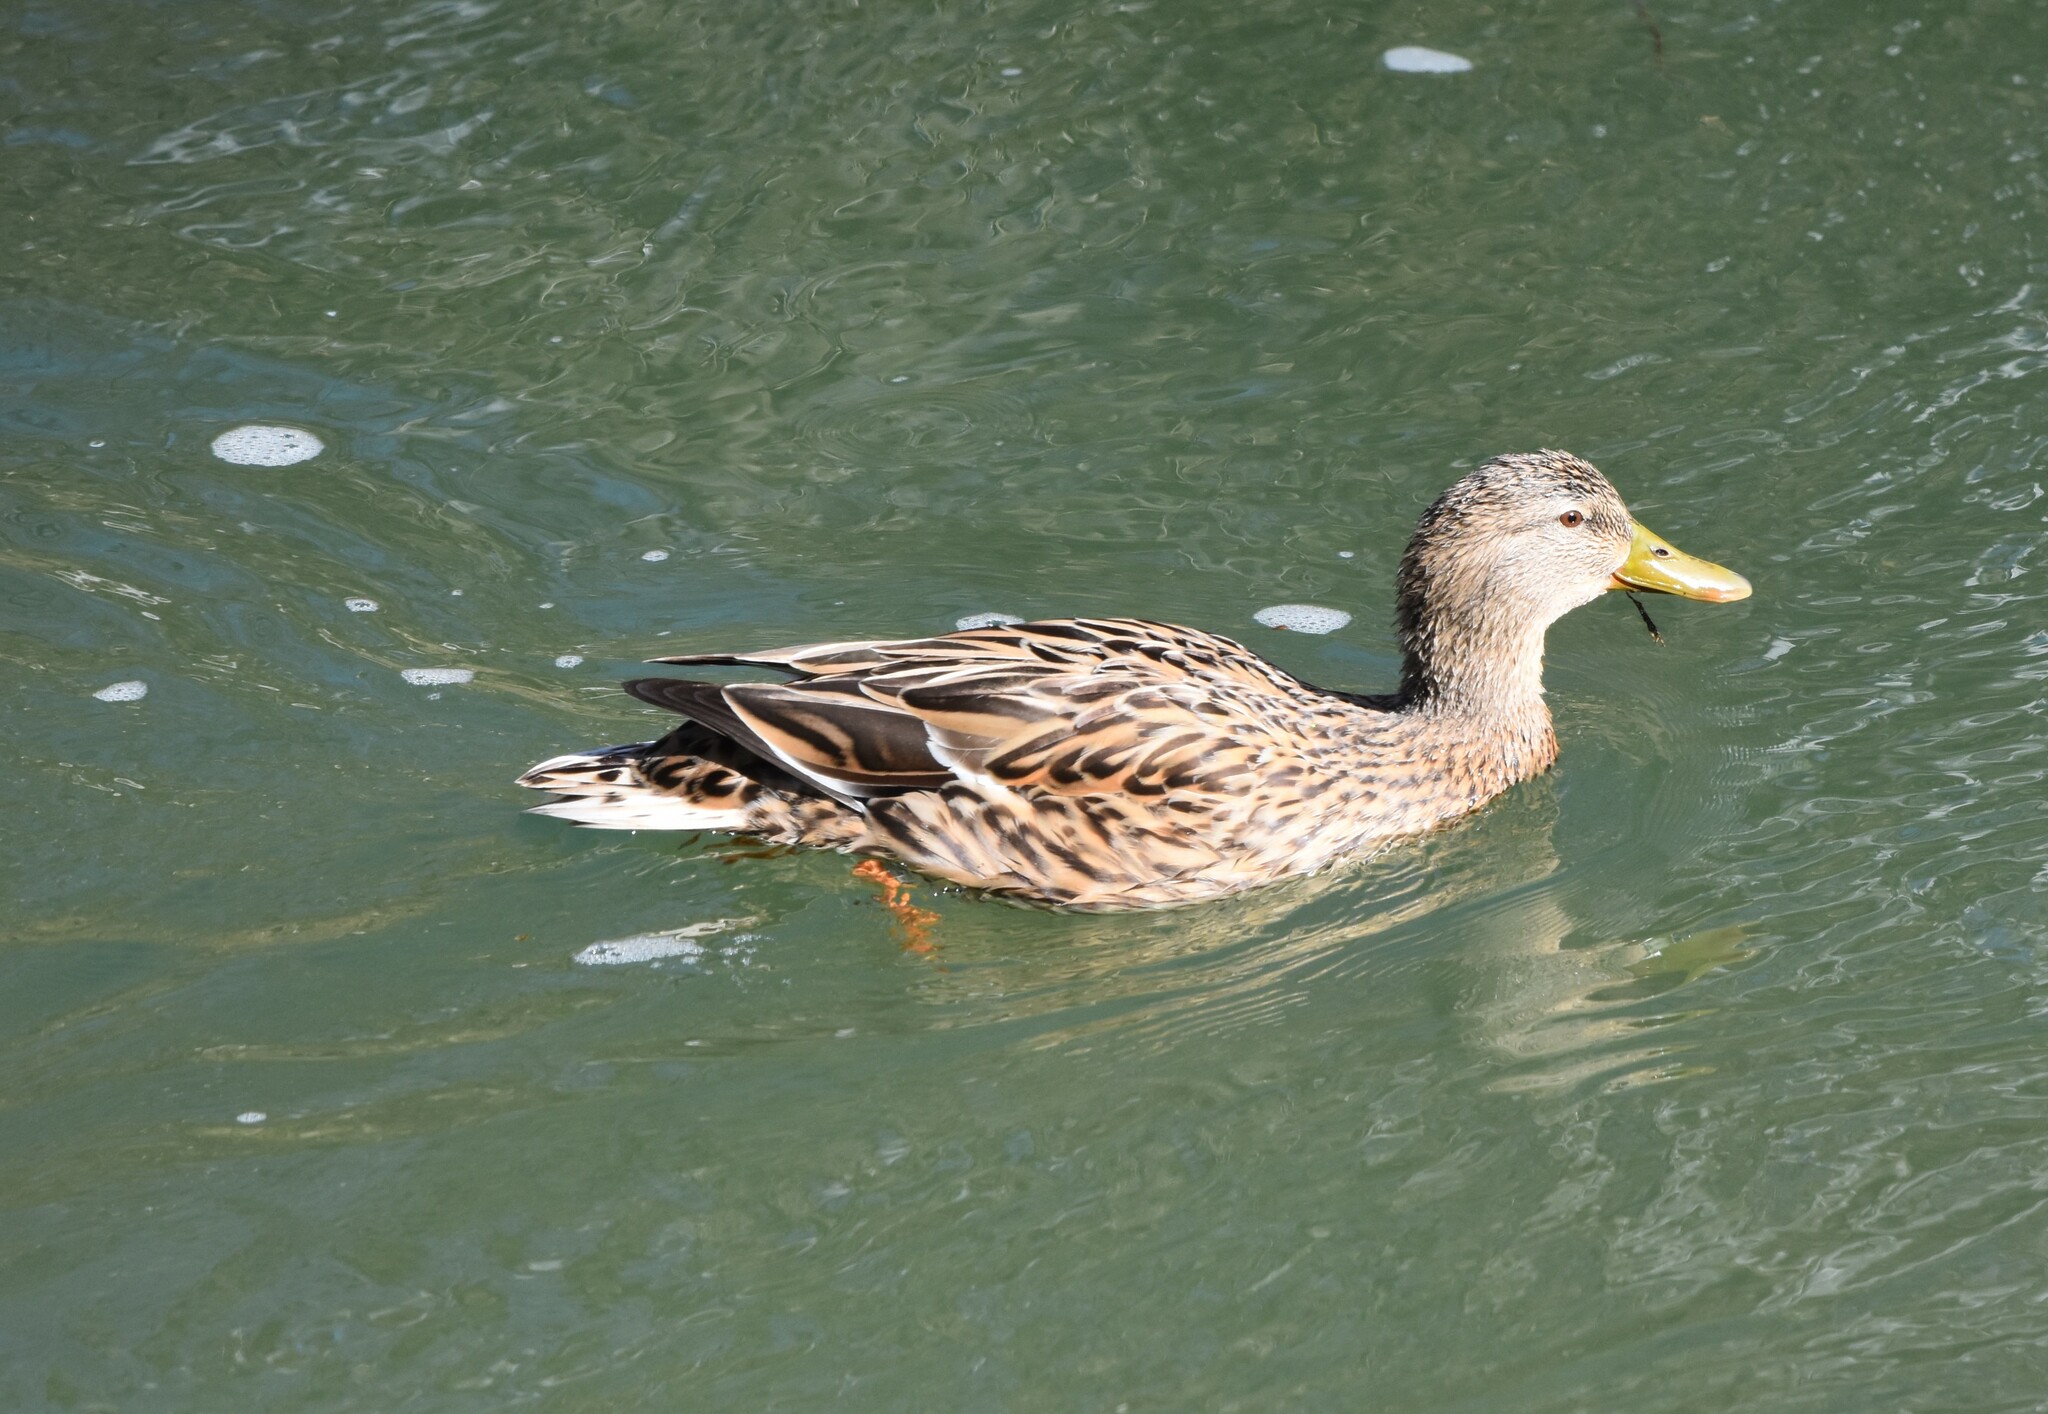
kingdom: Animalia
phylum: Chordata
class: Aves
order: Anseriformes
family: Anatidae
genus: Anas
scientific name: Anas platyrhynchos
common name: Mallard
